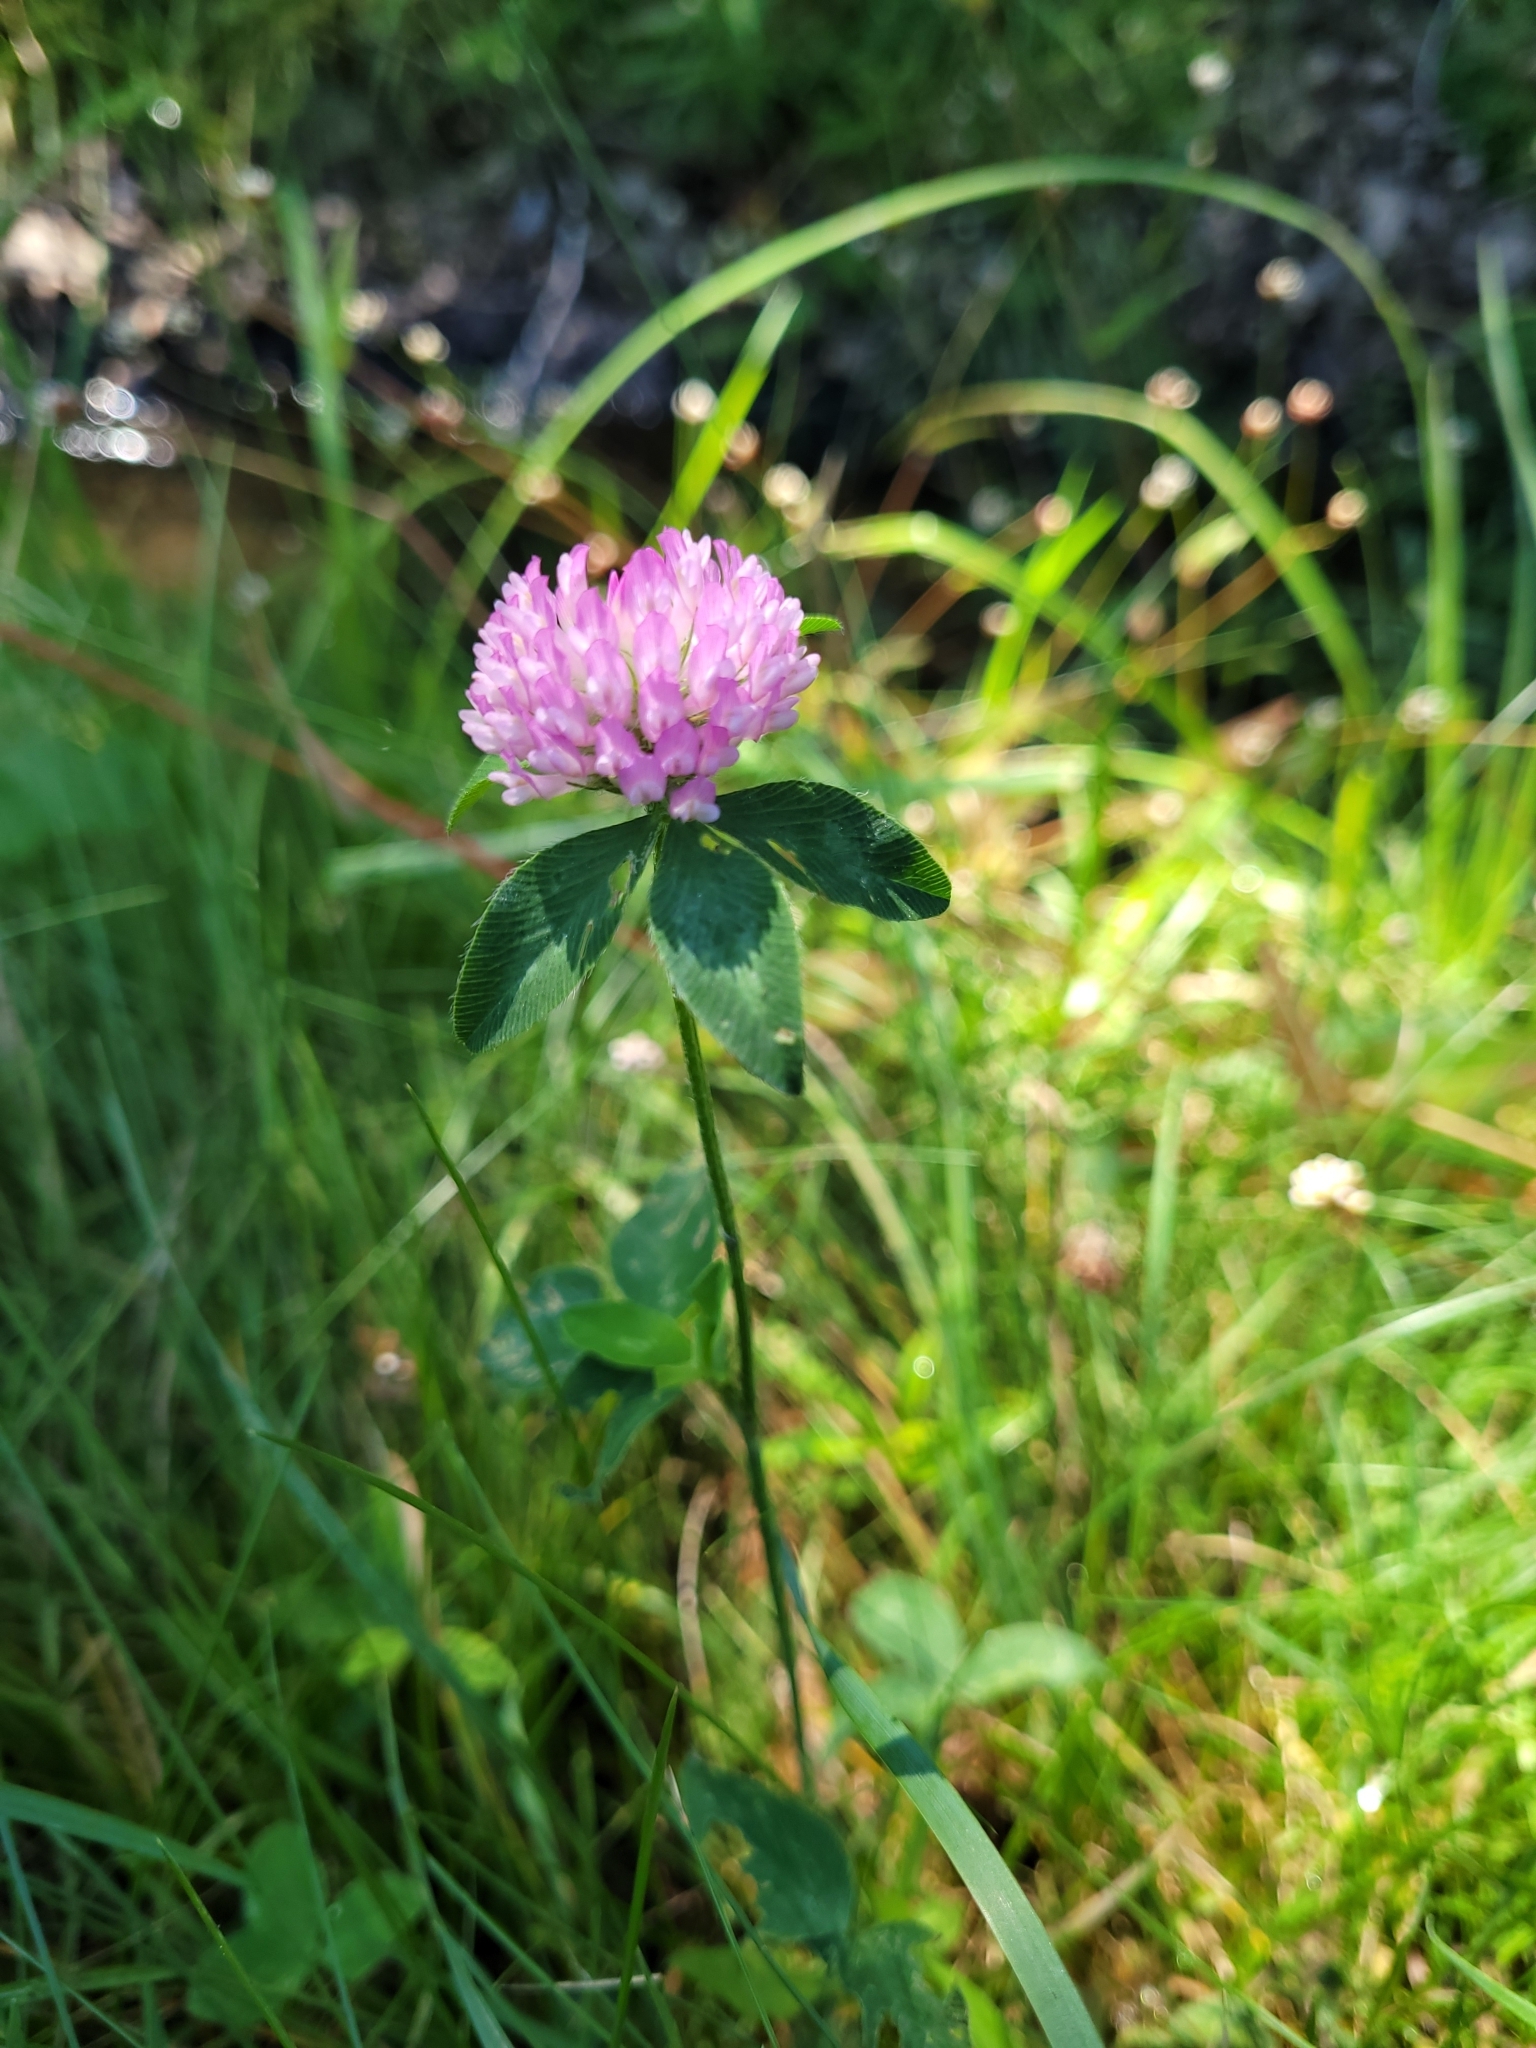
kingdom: Plantae
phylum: Tracheophyta
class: Magnoliopsida
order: Fabales
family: Fabaceae
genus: Trifolium
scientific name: Trifolium pratense
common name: Red clover
